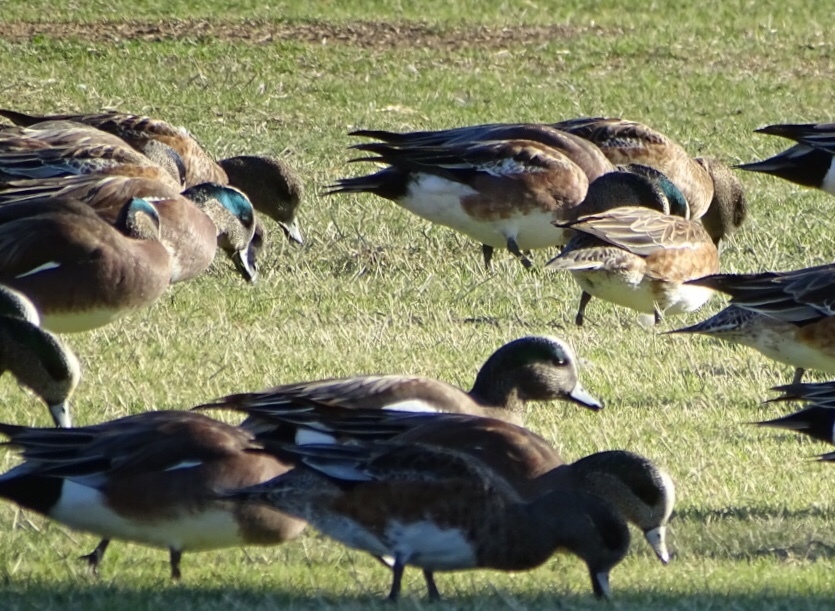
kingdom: Animalia
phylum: Chordata
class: Aves
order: Anseriformes
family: Anatidae
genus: Mareca
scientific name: Mareca americana
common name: American wigeon
